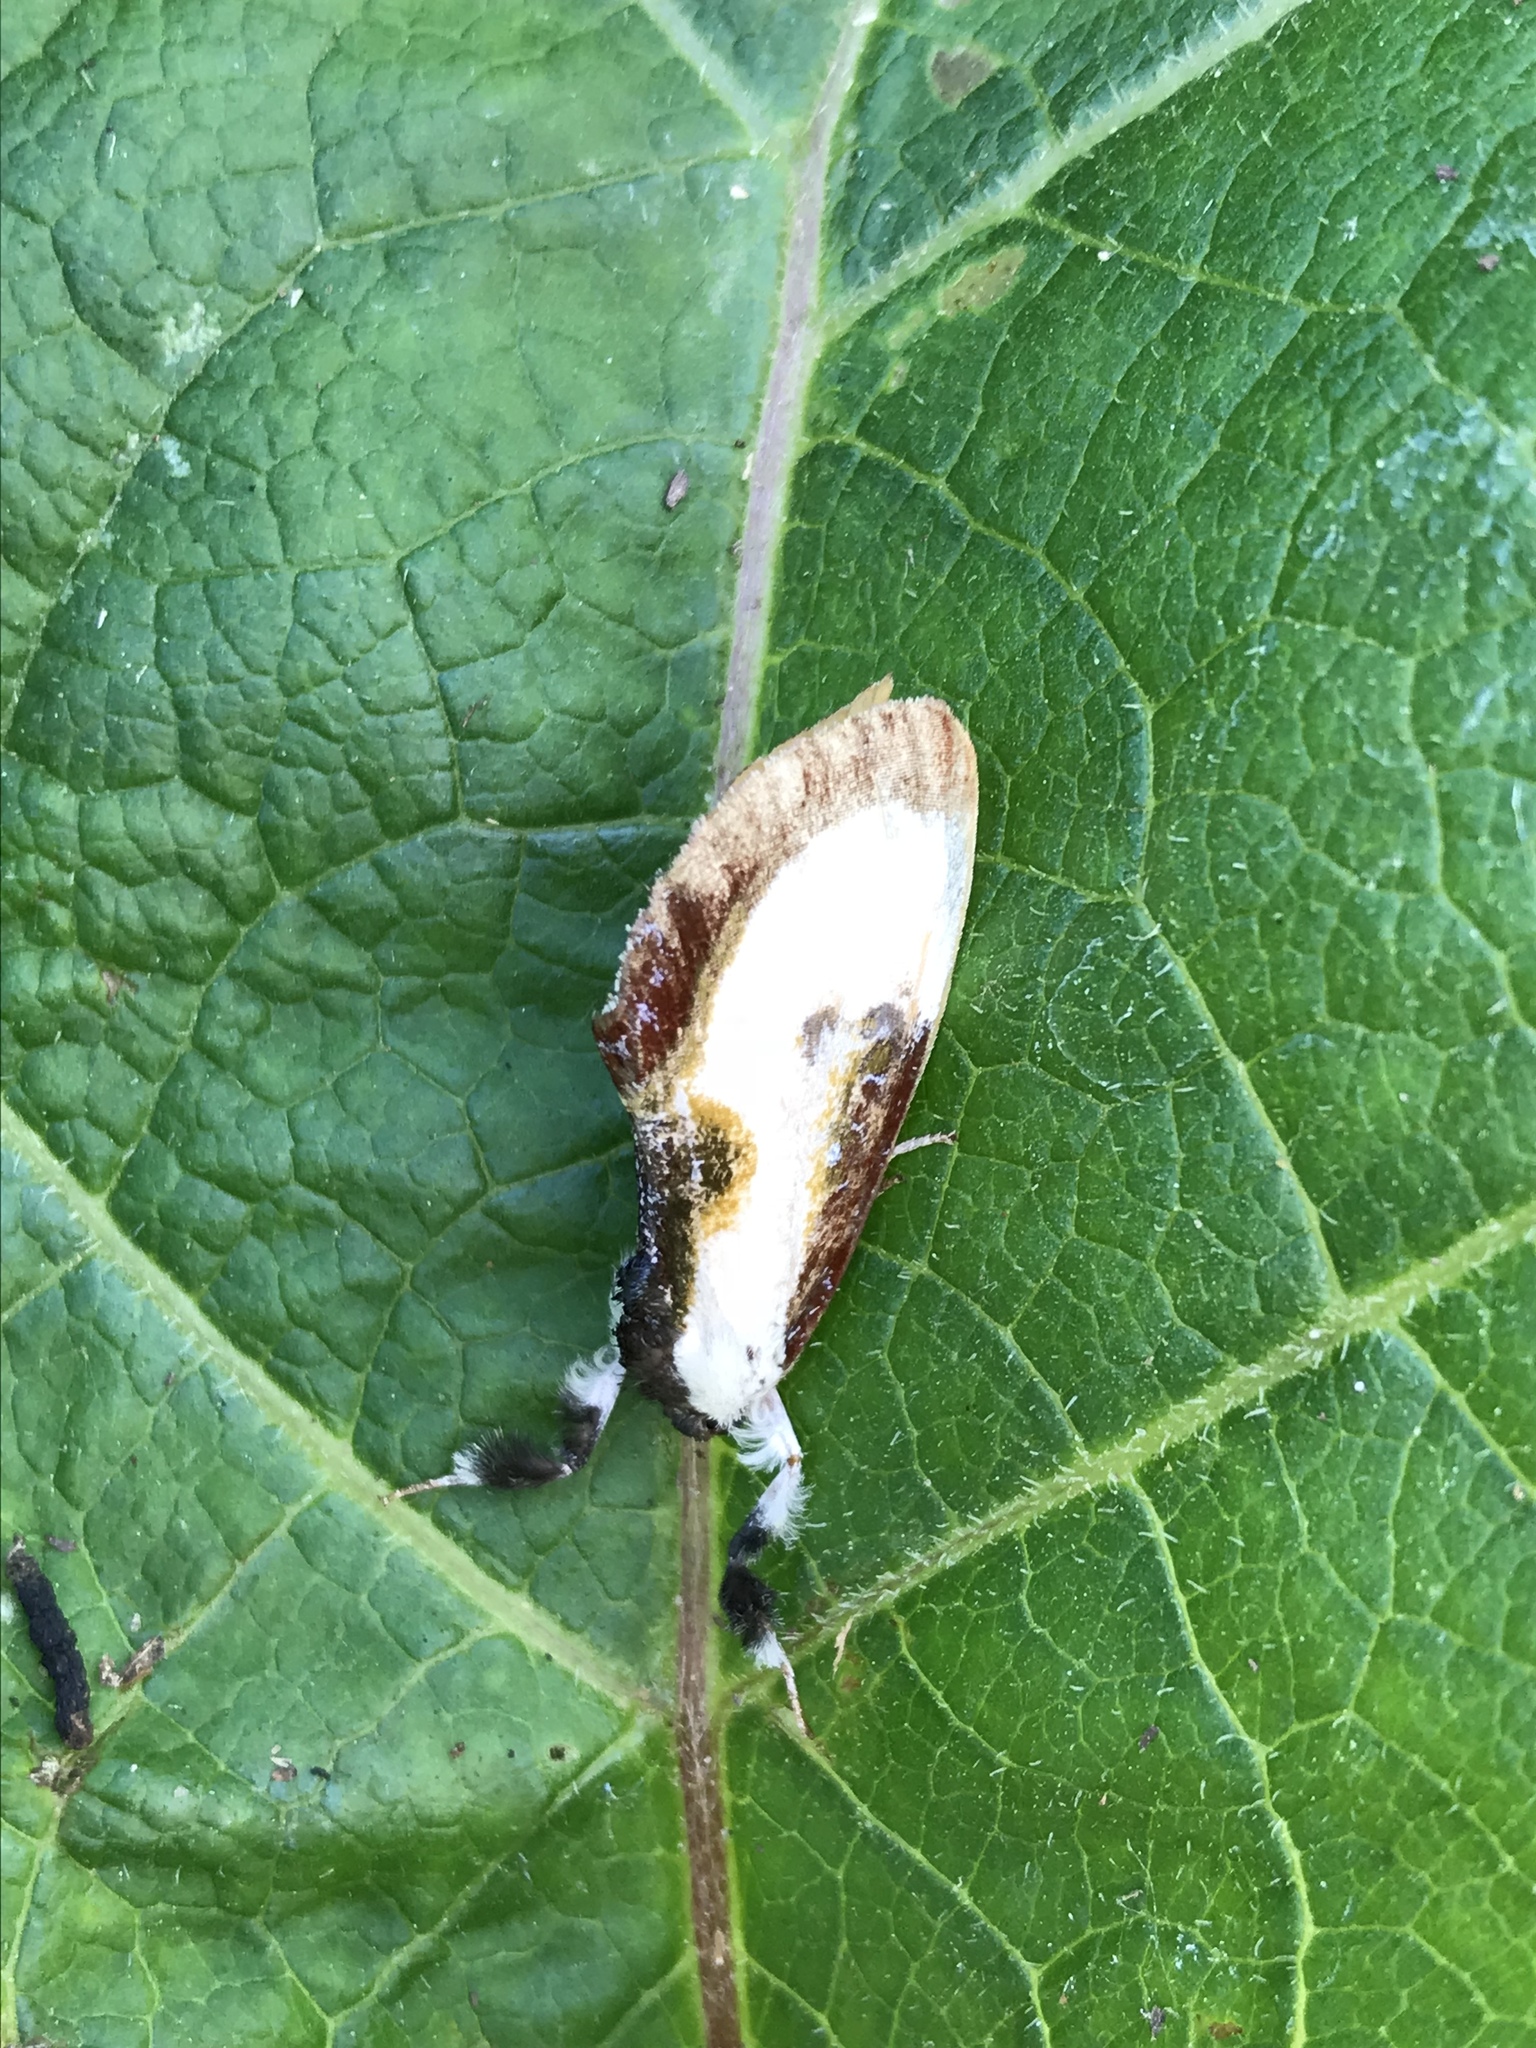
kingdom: Animalia
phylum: Arthropoda
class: Insecta
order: Lepidoptera
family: Noctuidae
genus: Eudryas
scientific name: Eudryas grata
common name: Beautiful wood-nymph
